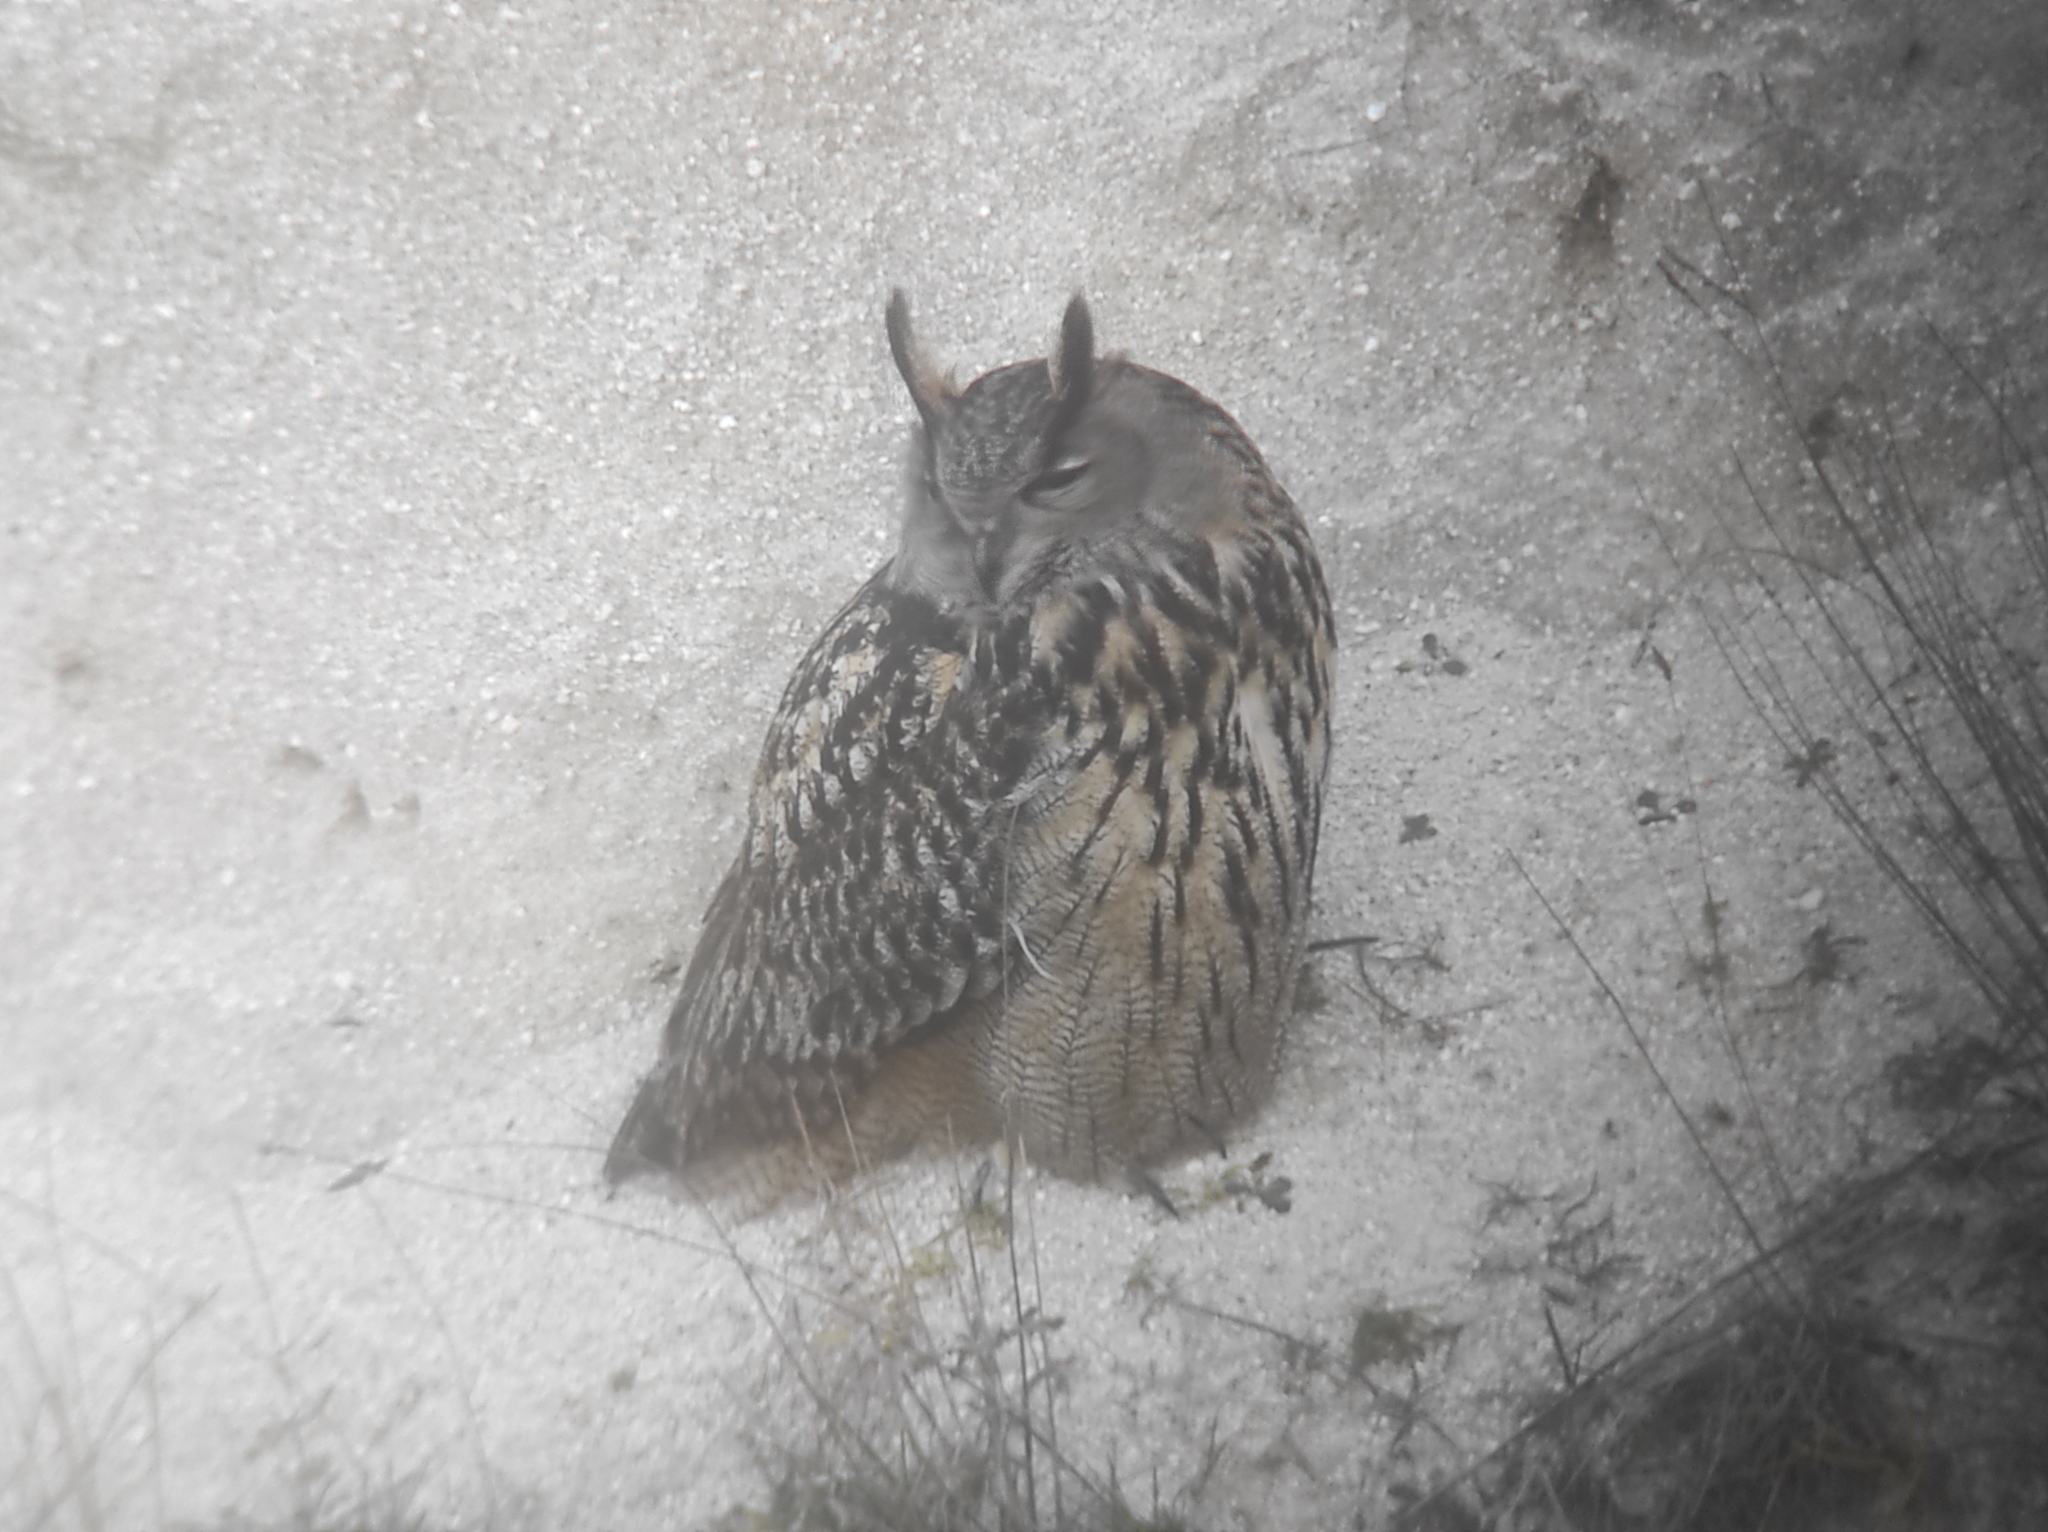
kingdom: Animalia
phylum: Chordata
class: Aves
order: Strigiformes
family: Strigidae
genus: Bubo
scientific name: Bubo bubo
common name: Eurasian eagle-owl
